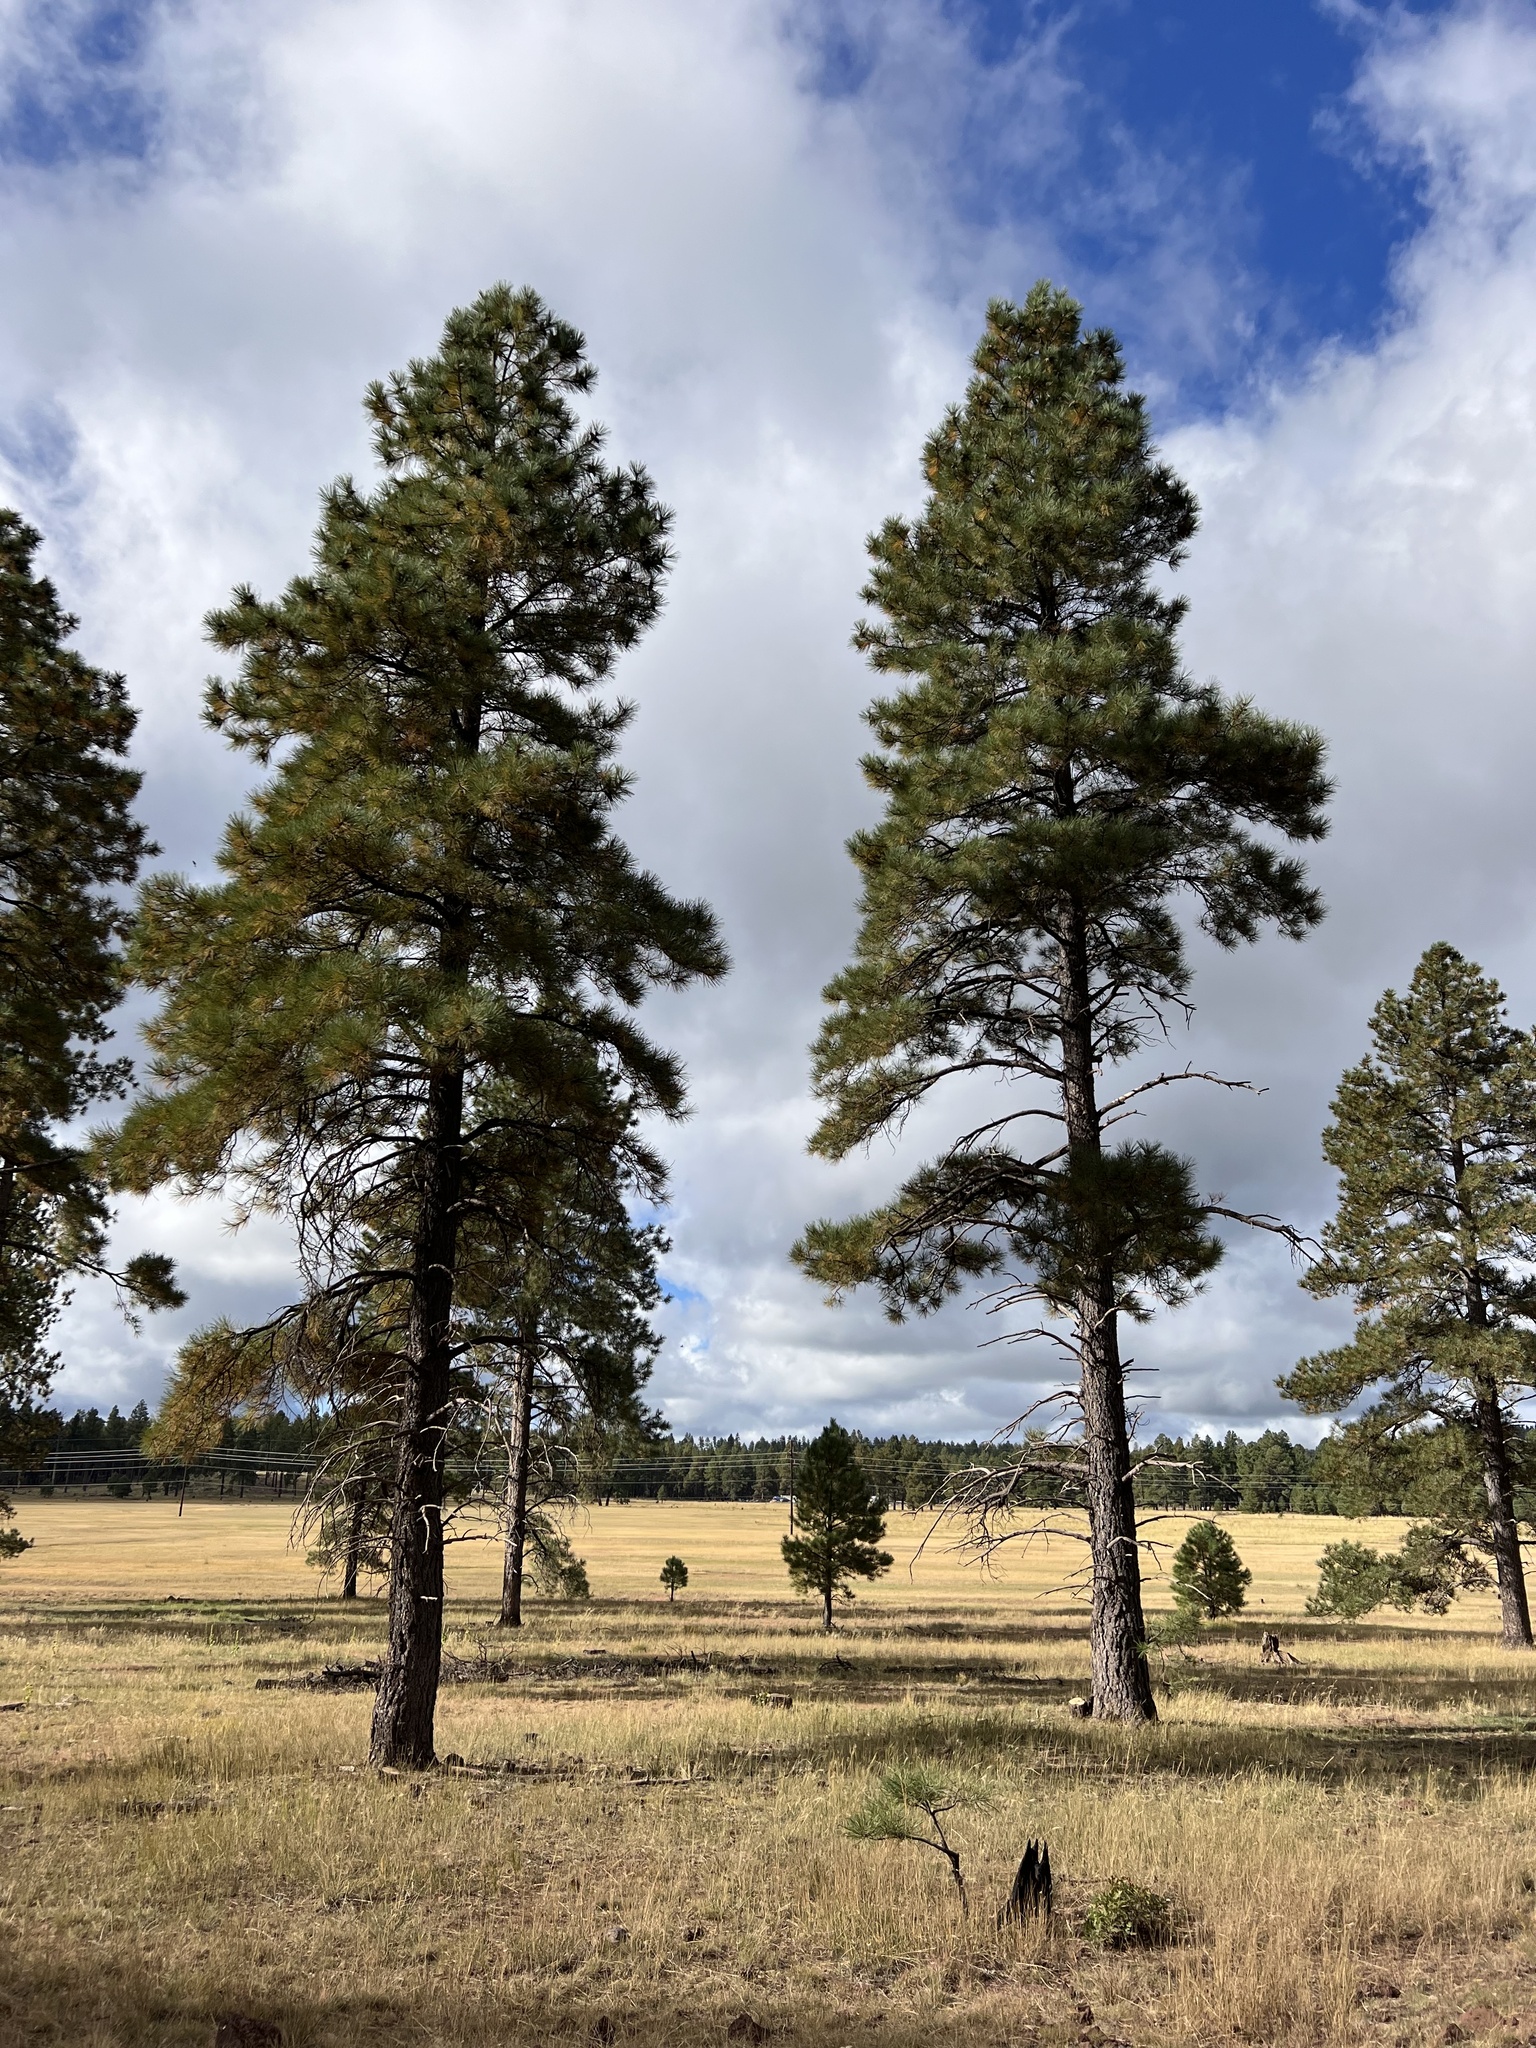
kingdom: Plantae
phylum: Tracheophyta
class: Pinopsida
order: Pinales
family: Pinaceae
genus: Pinus
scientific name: Pinus ponderosa
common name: Western yellow-pine
